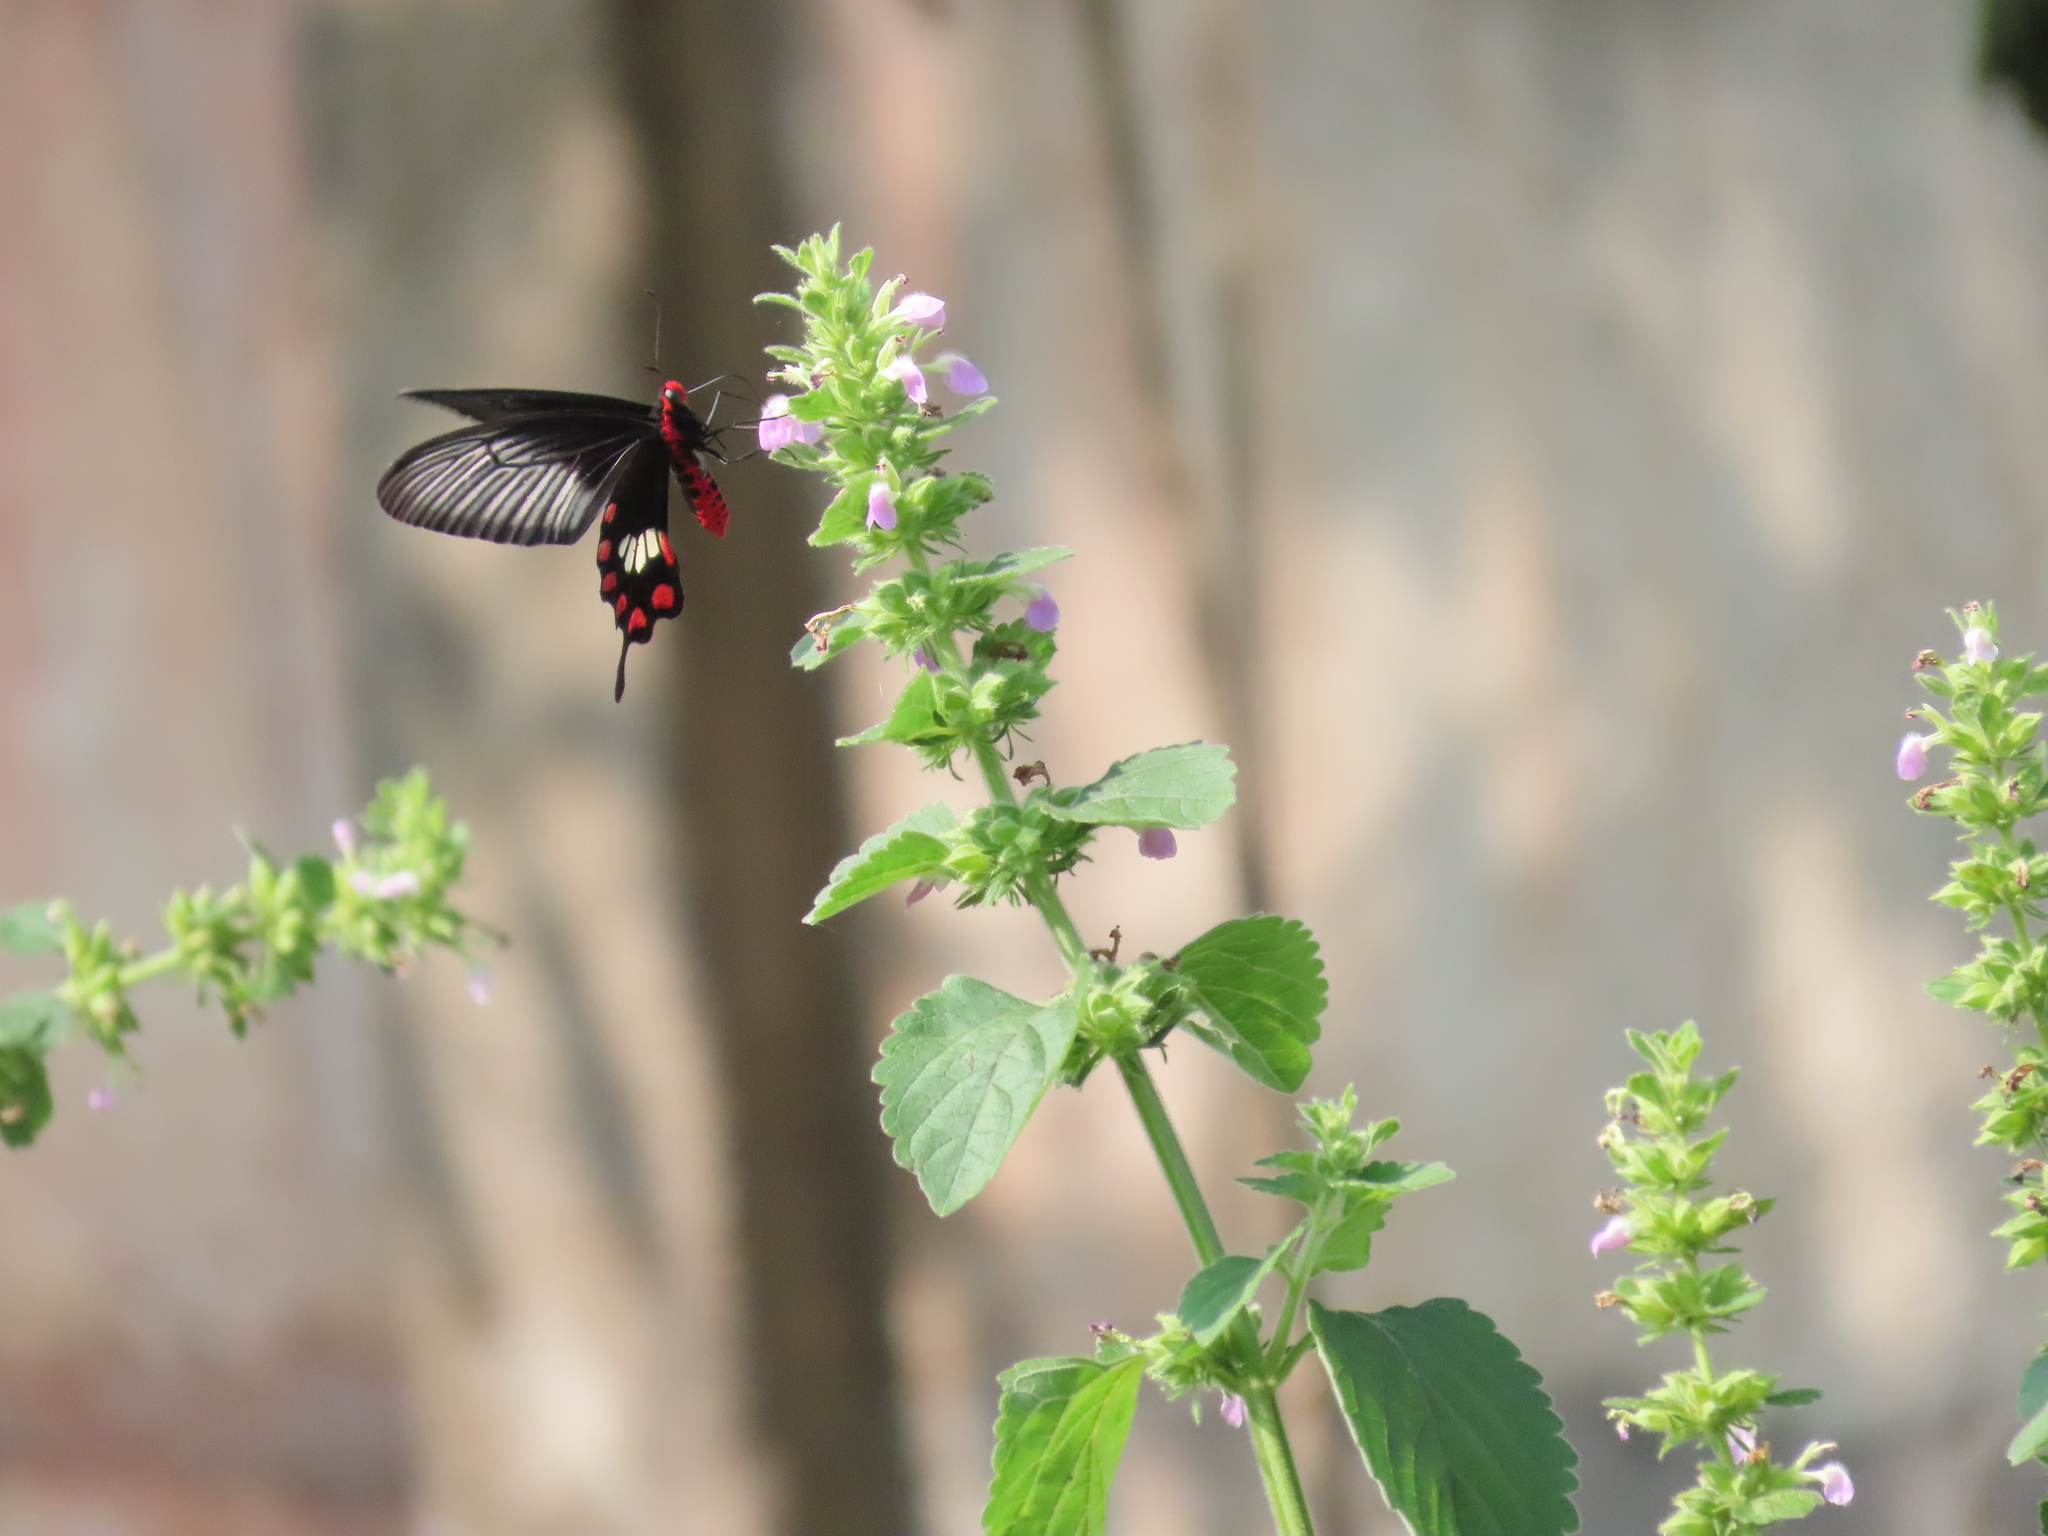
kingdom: Animalia
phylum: Arthropoda
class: Insecta
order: Lepidoptera
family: Papilionidae
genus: Pachliopta
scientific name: Pachliopta aristolochiae
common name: Common rose
